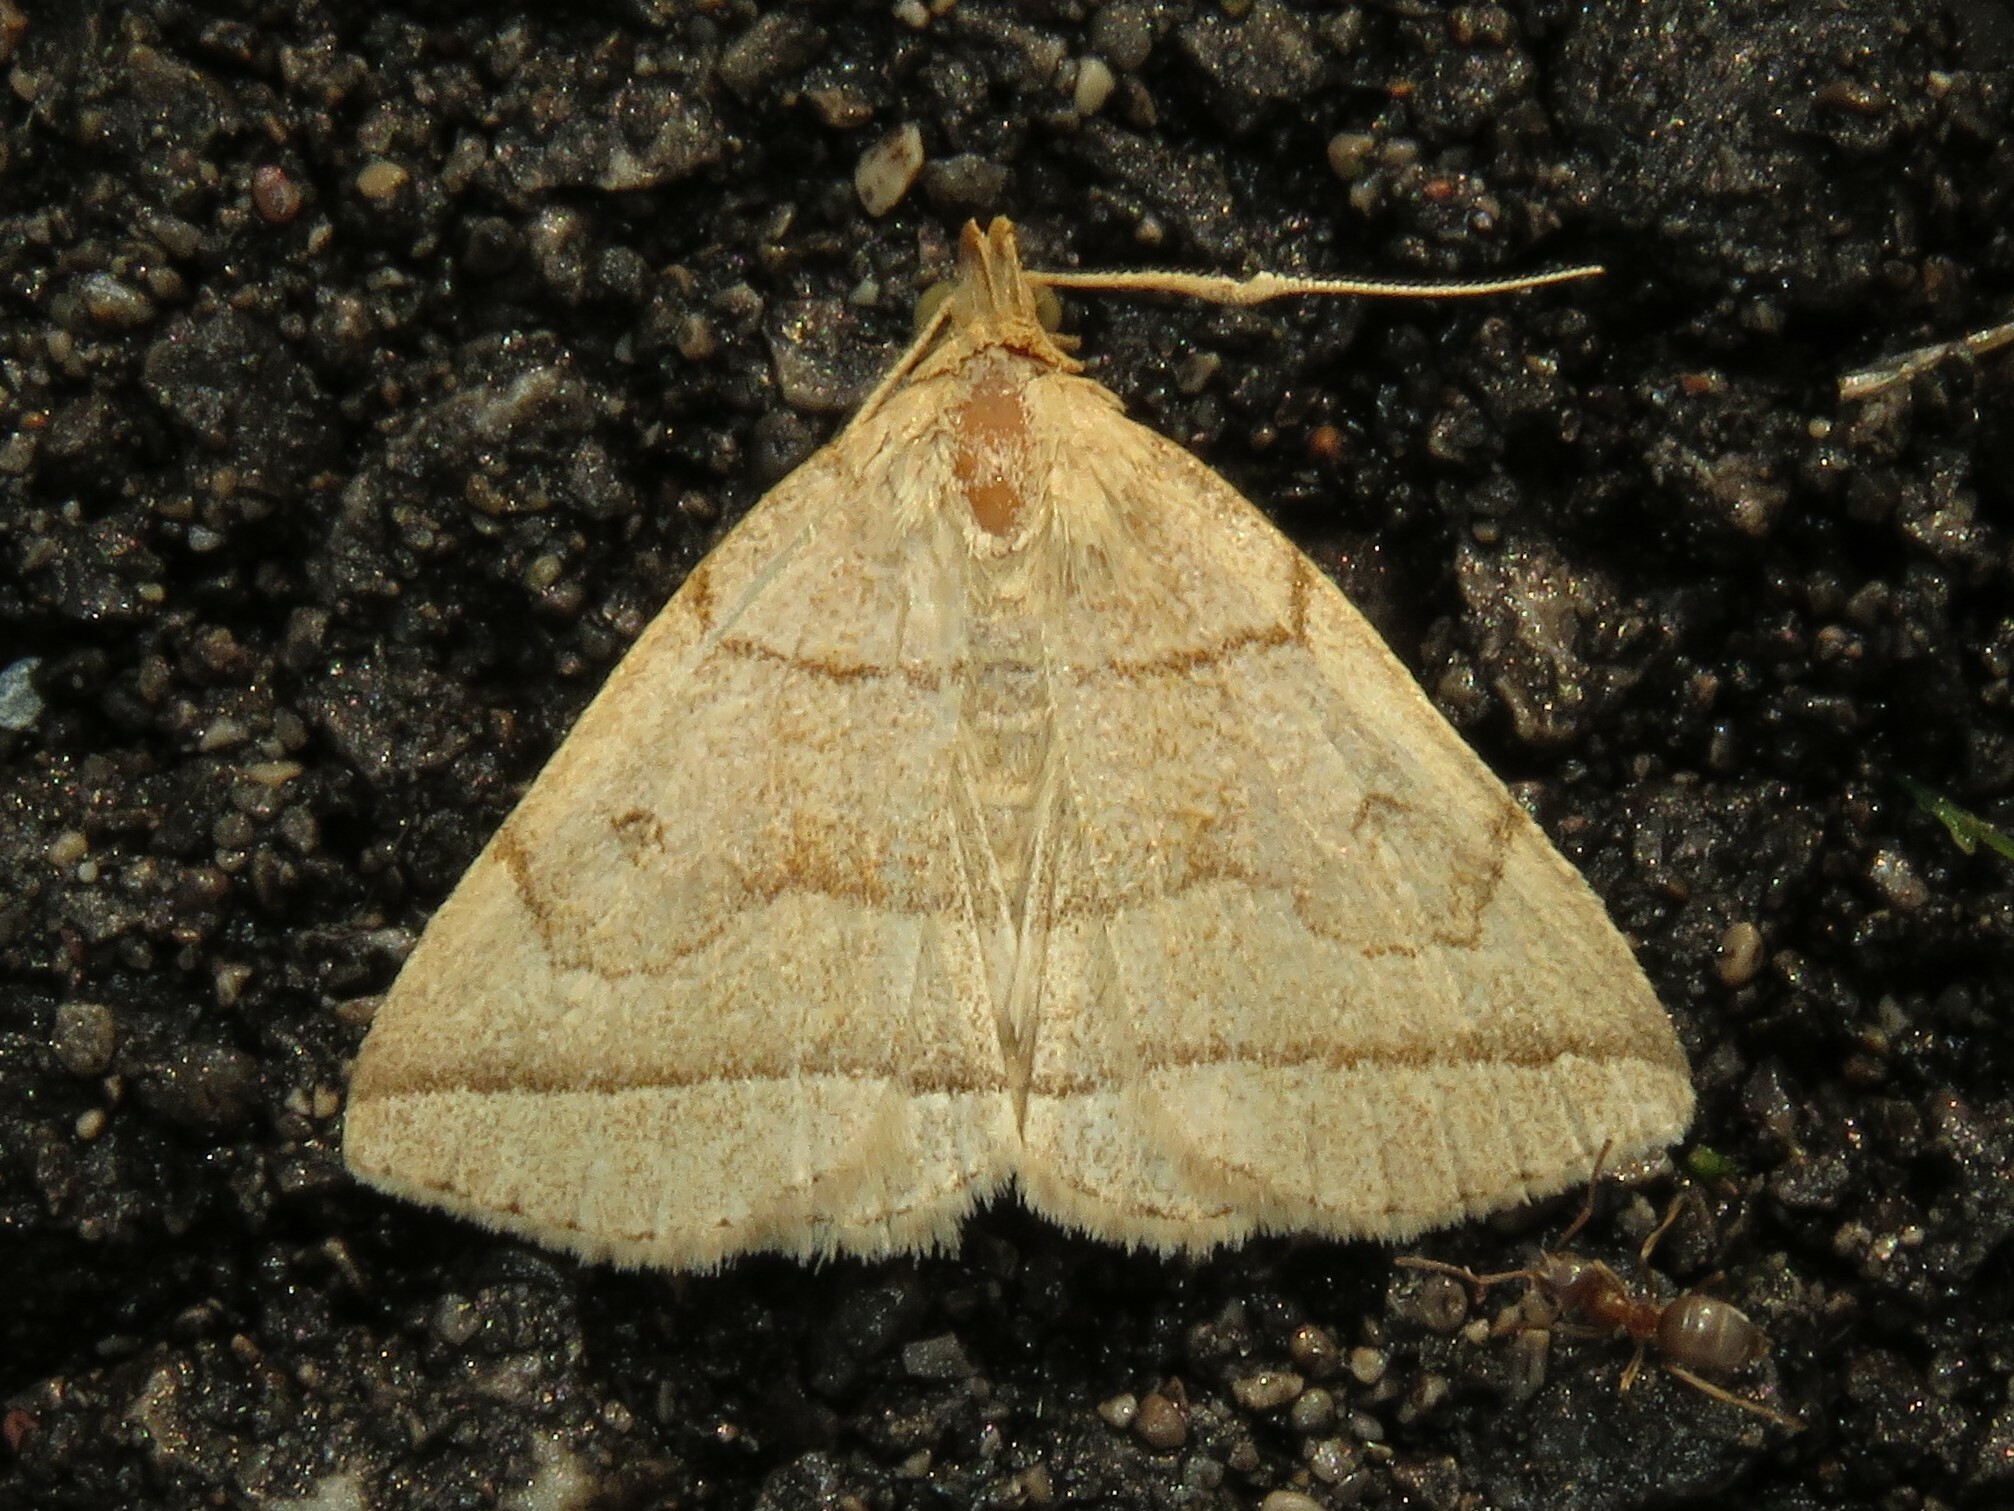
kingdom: Animalia
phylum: Arthropoda
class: Insecta
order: Lepidoptera
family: Erebidae
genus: Zanclognatha
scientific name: Zanclognatha cruralis
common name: Early fan-foot
